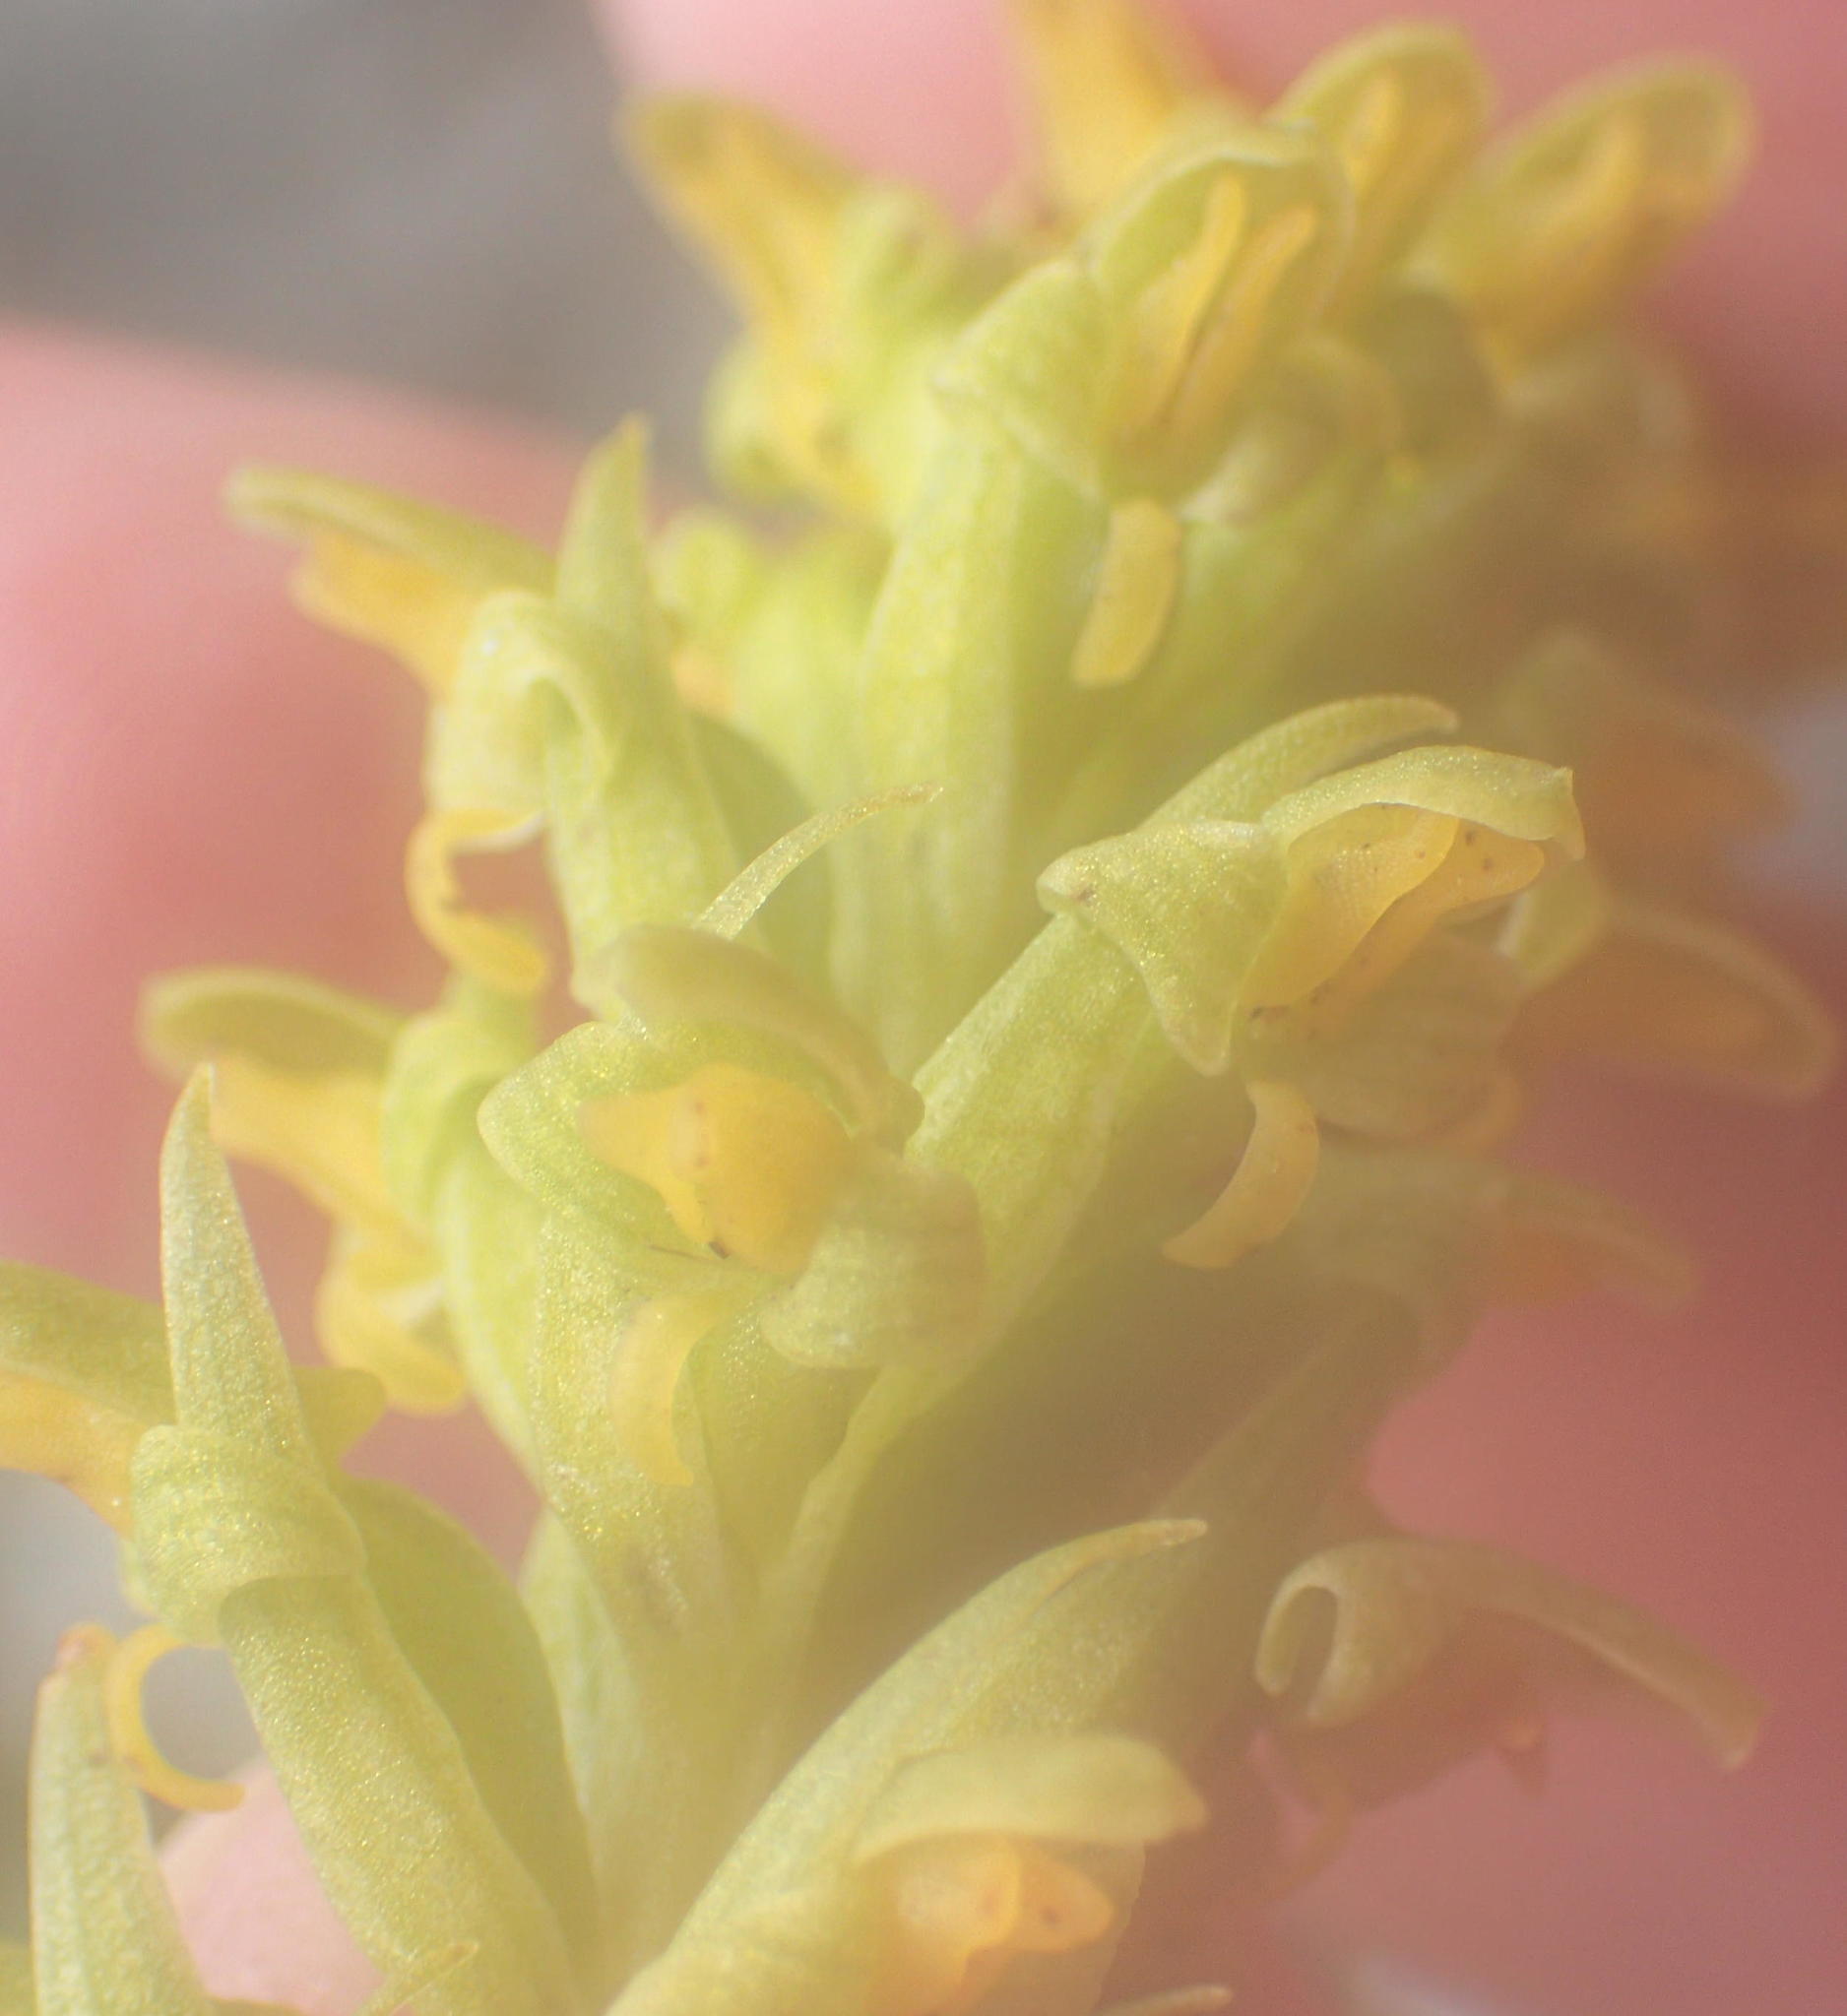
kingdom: Plantae
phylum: Tracheophyta
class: Liliopsida
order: Asparagales
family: Orchidaceae
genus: Disa
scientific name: Disa cylindrica
